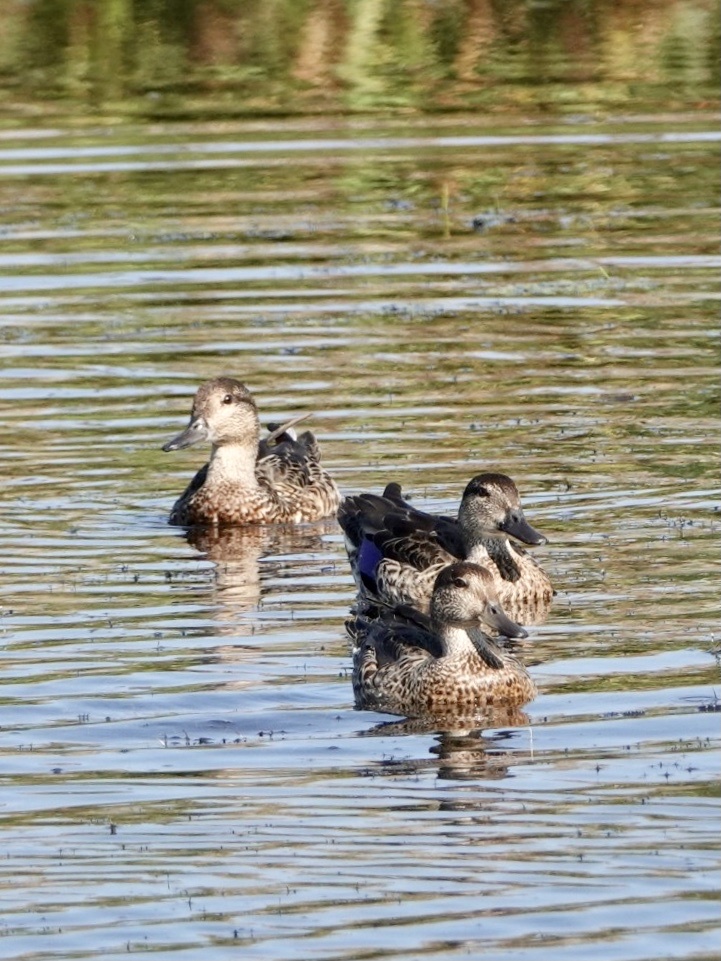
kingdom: Animalia
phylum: Chordata
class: Aves
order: Anseriformes
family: Anatidae
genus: Anas
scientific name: Anas crecca
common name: Eurasian teal
